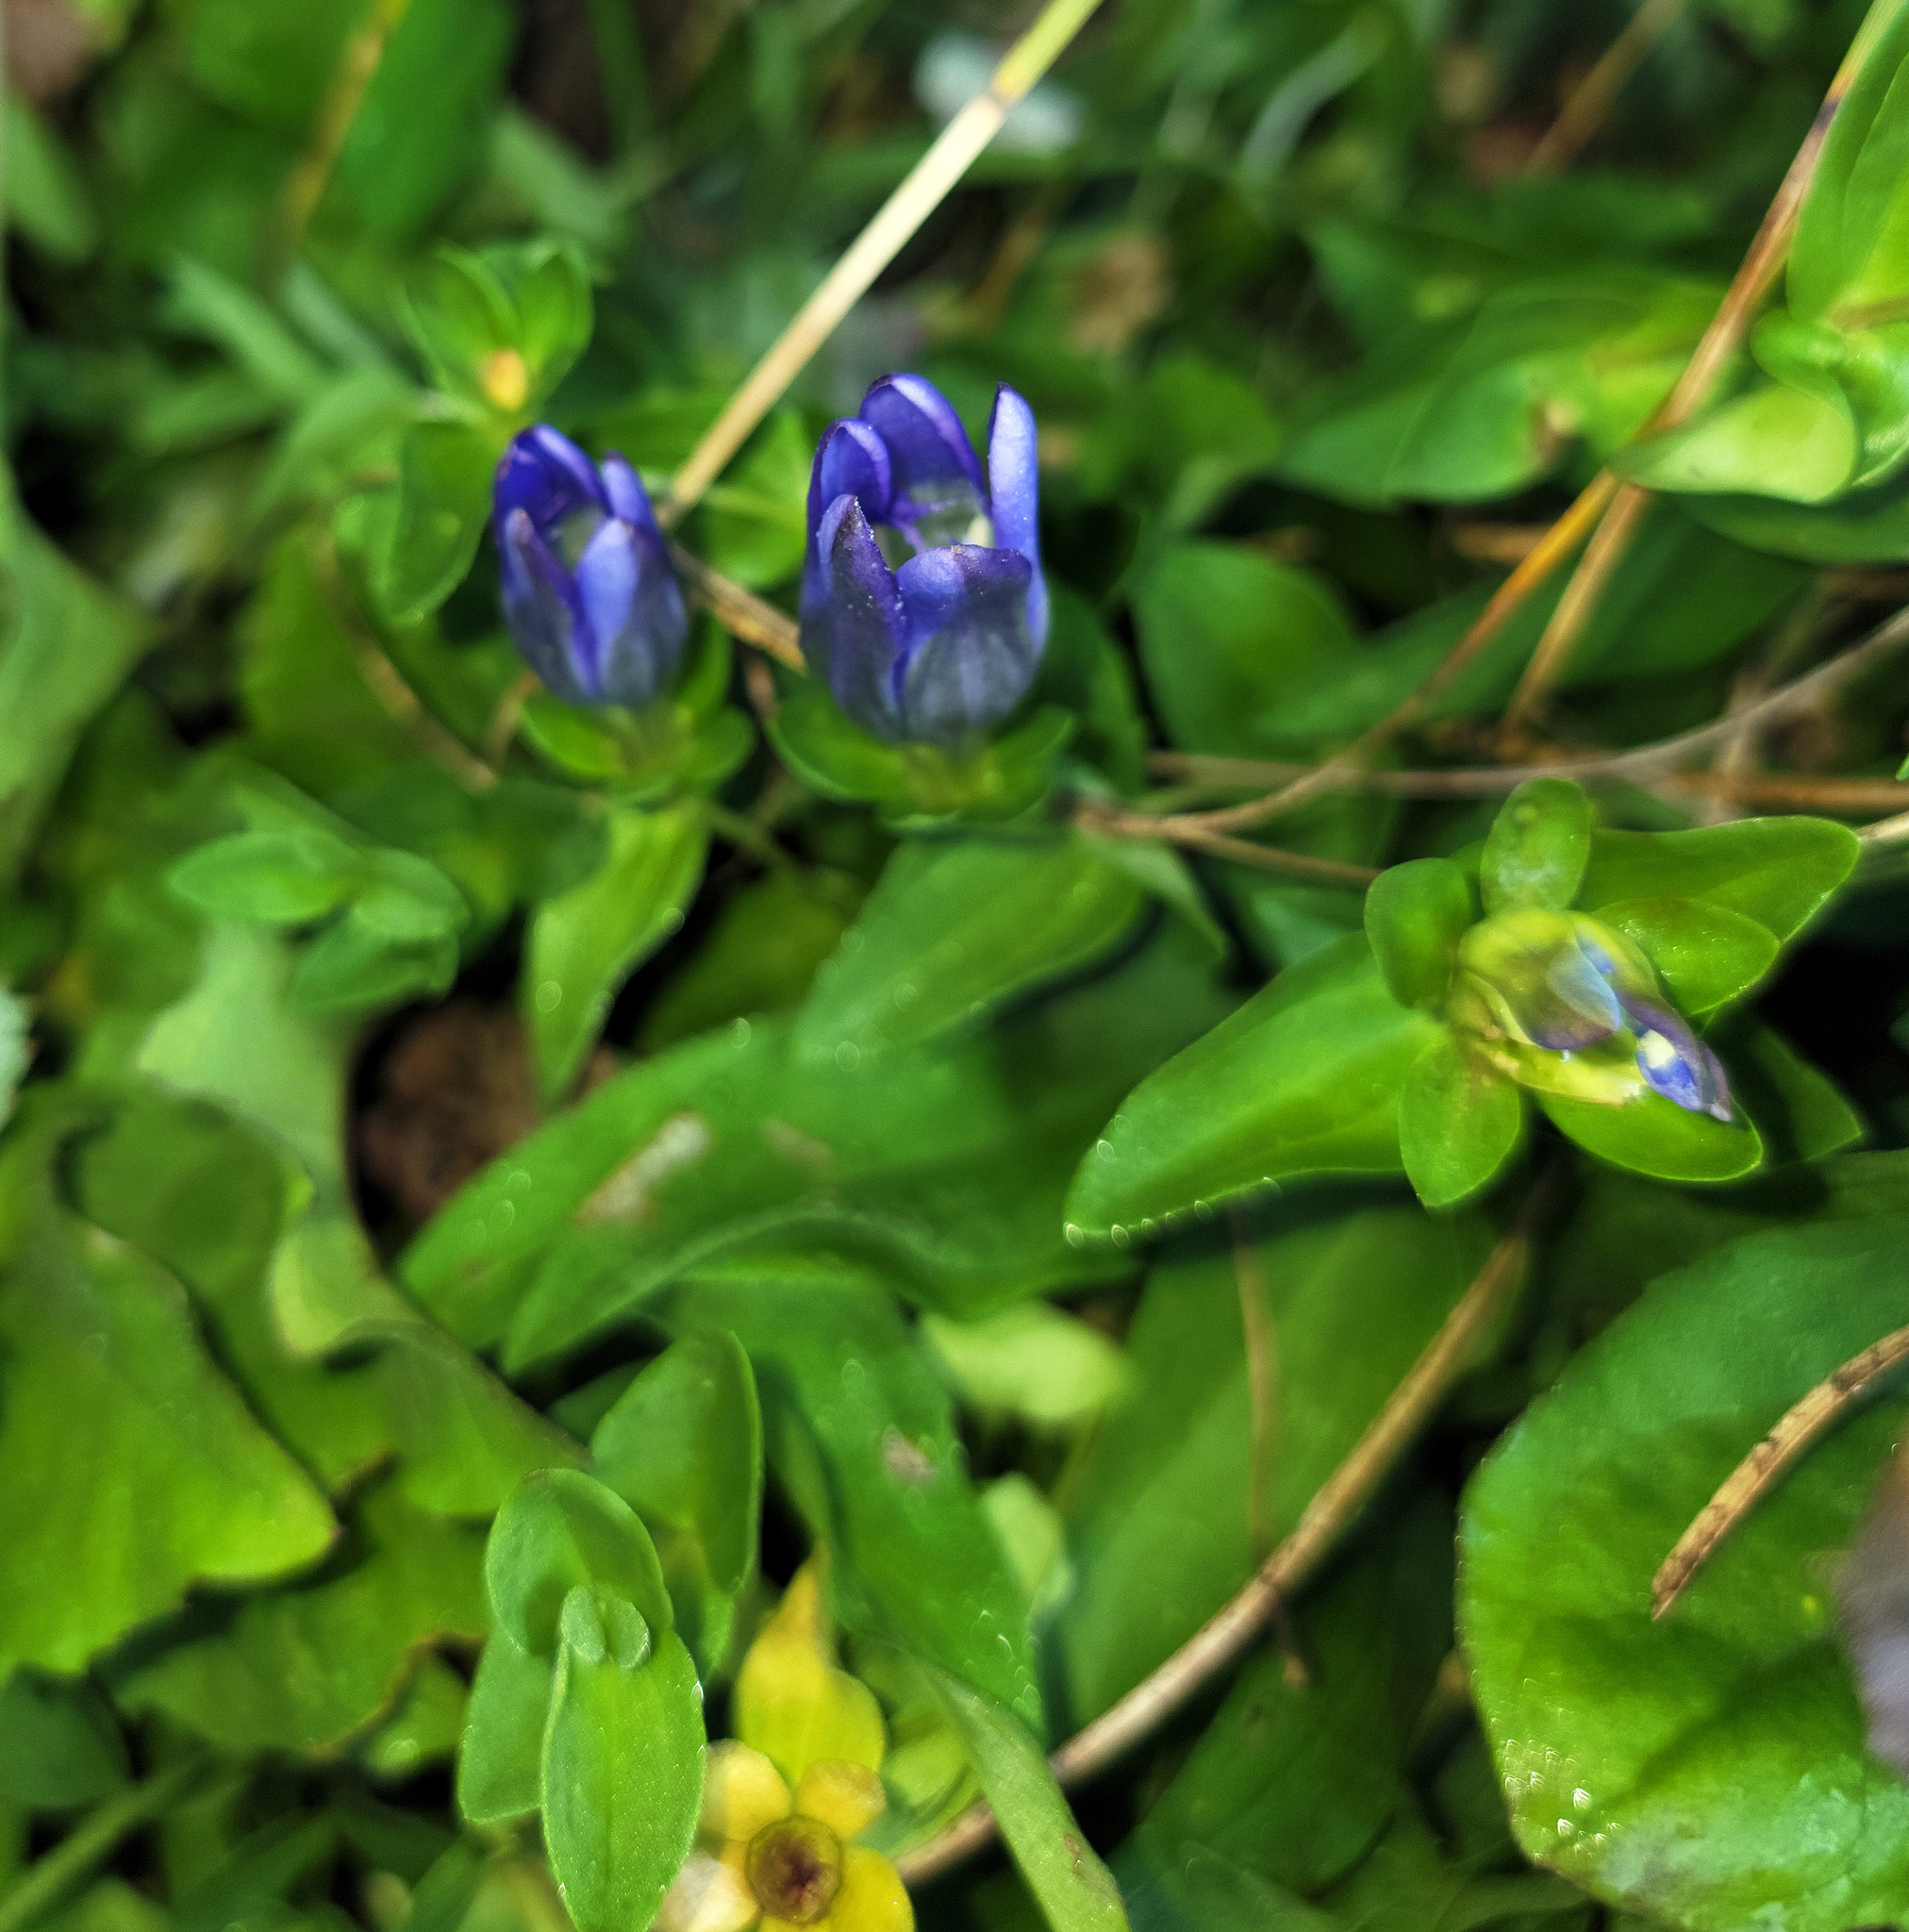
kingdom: Plantae
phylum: Tracheophyta
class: Magnoliopsida
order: Gentianales
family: Gentianaceae
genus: Gentiana
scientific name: Gentiana calycosa
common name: Rainier pleated gentian
